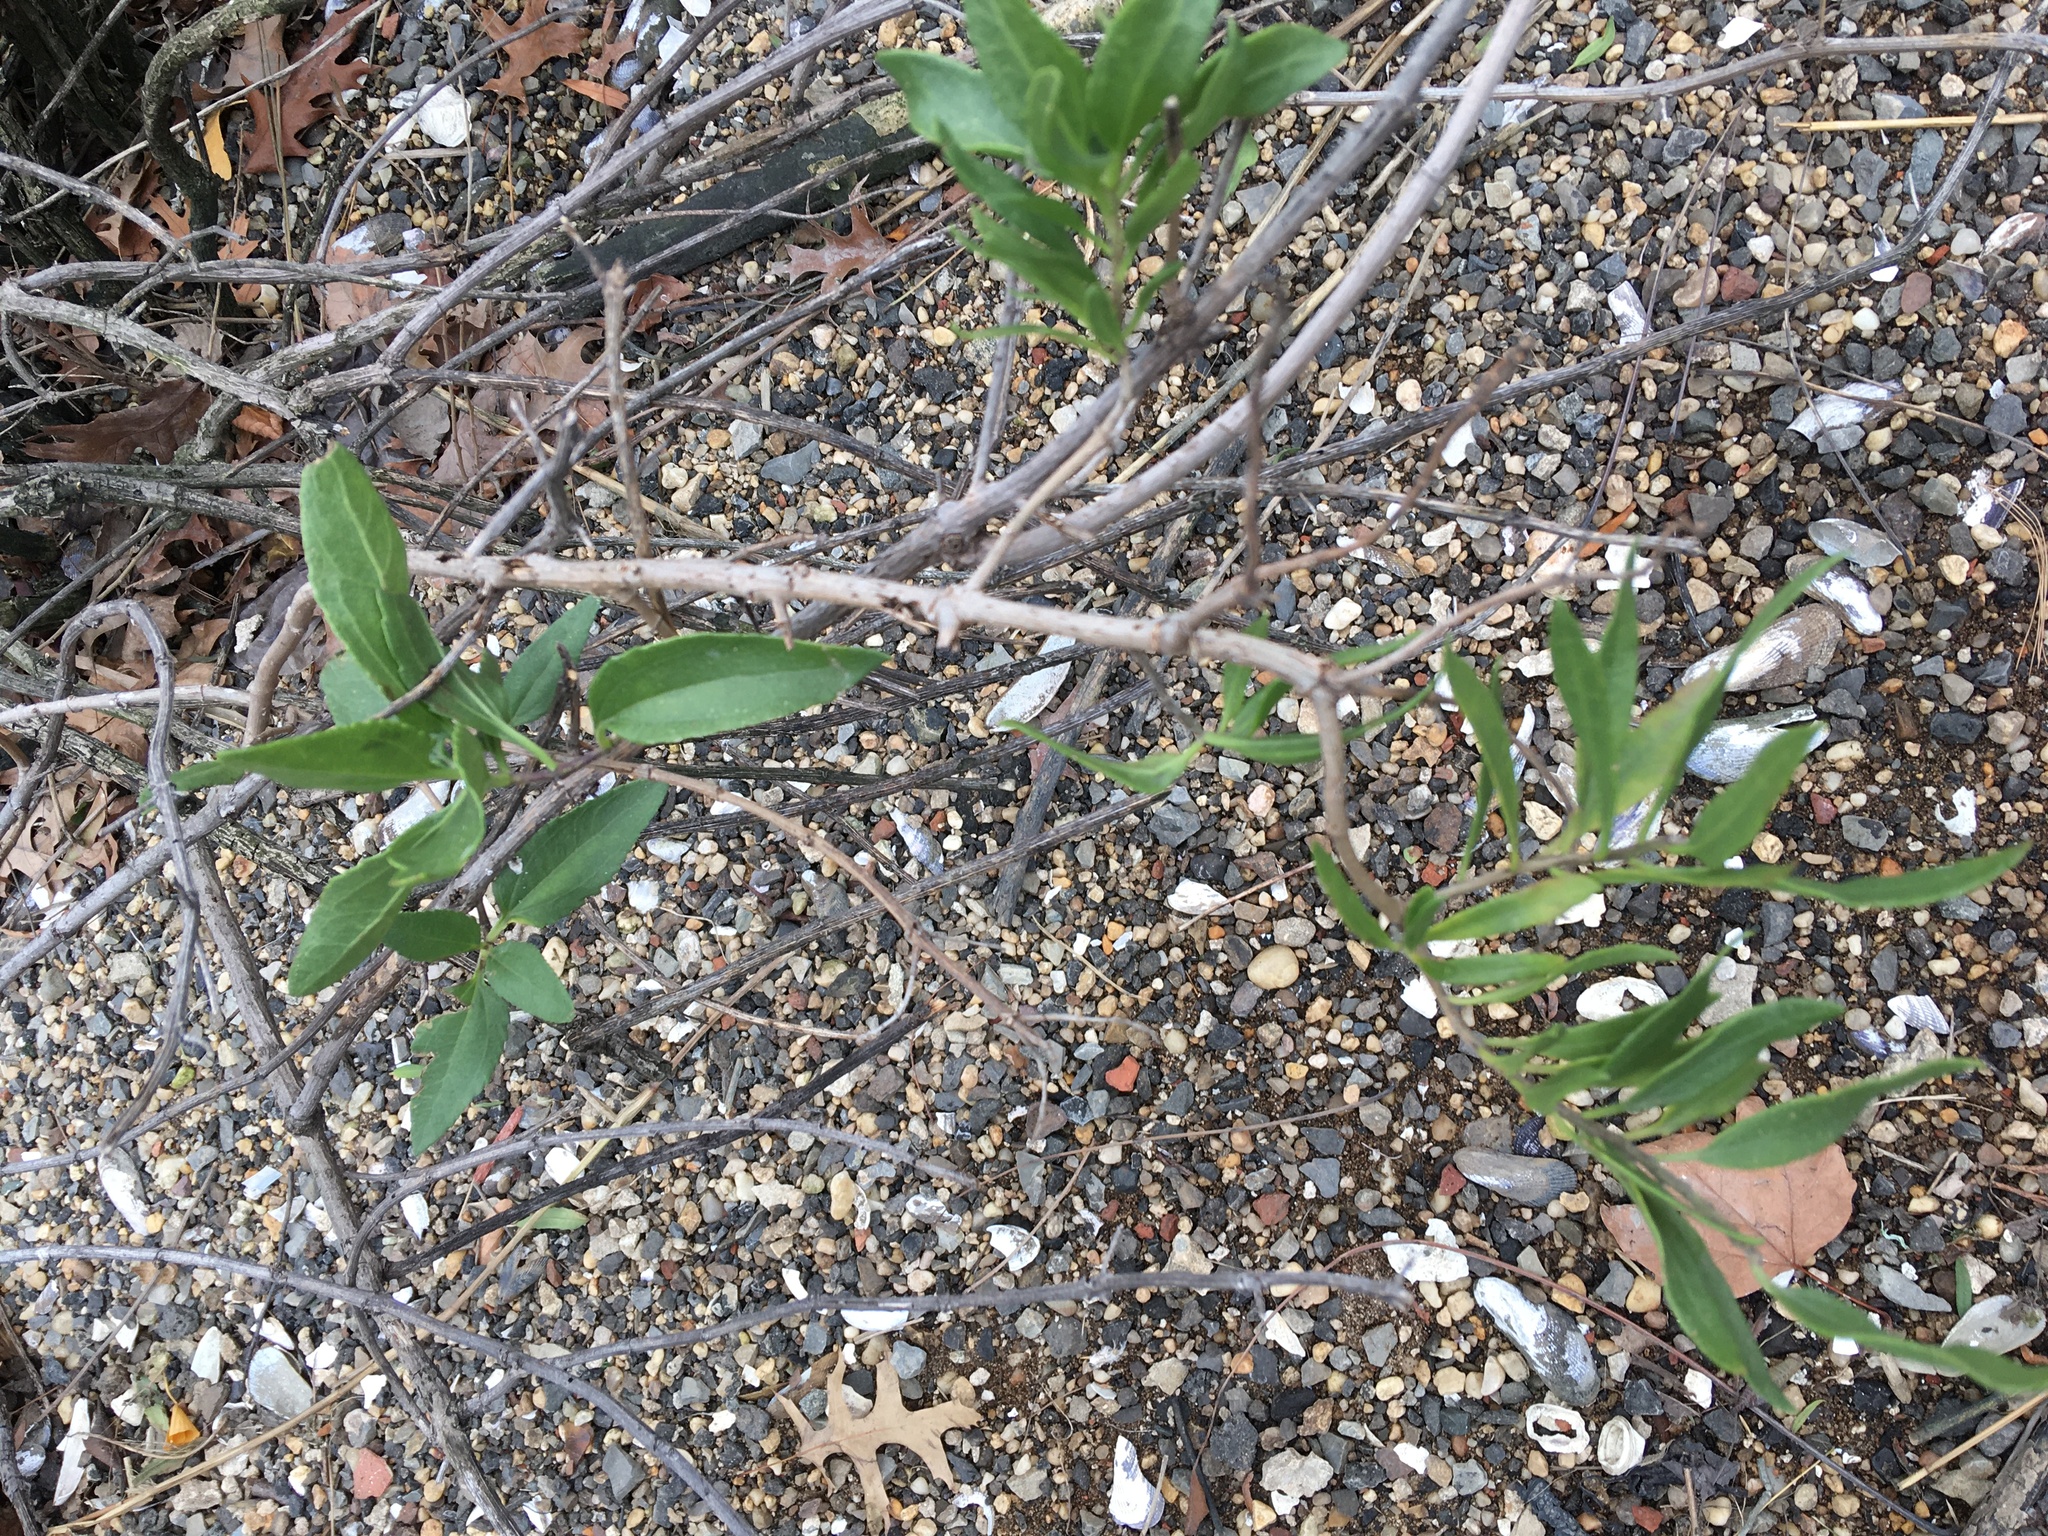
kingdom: Plantae
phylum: Tracheophyta
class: Magnoliopsida
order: Asterales
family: Asteraceae
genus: Iva
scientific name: Iva frutescens
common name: Big-leaved marsh-elder
